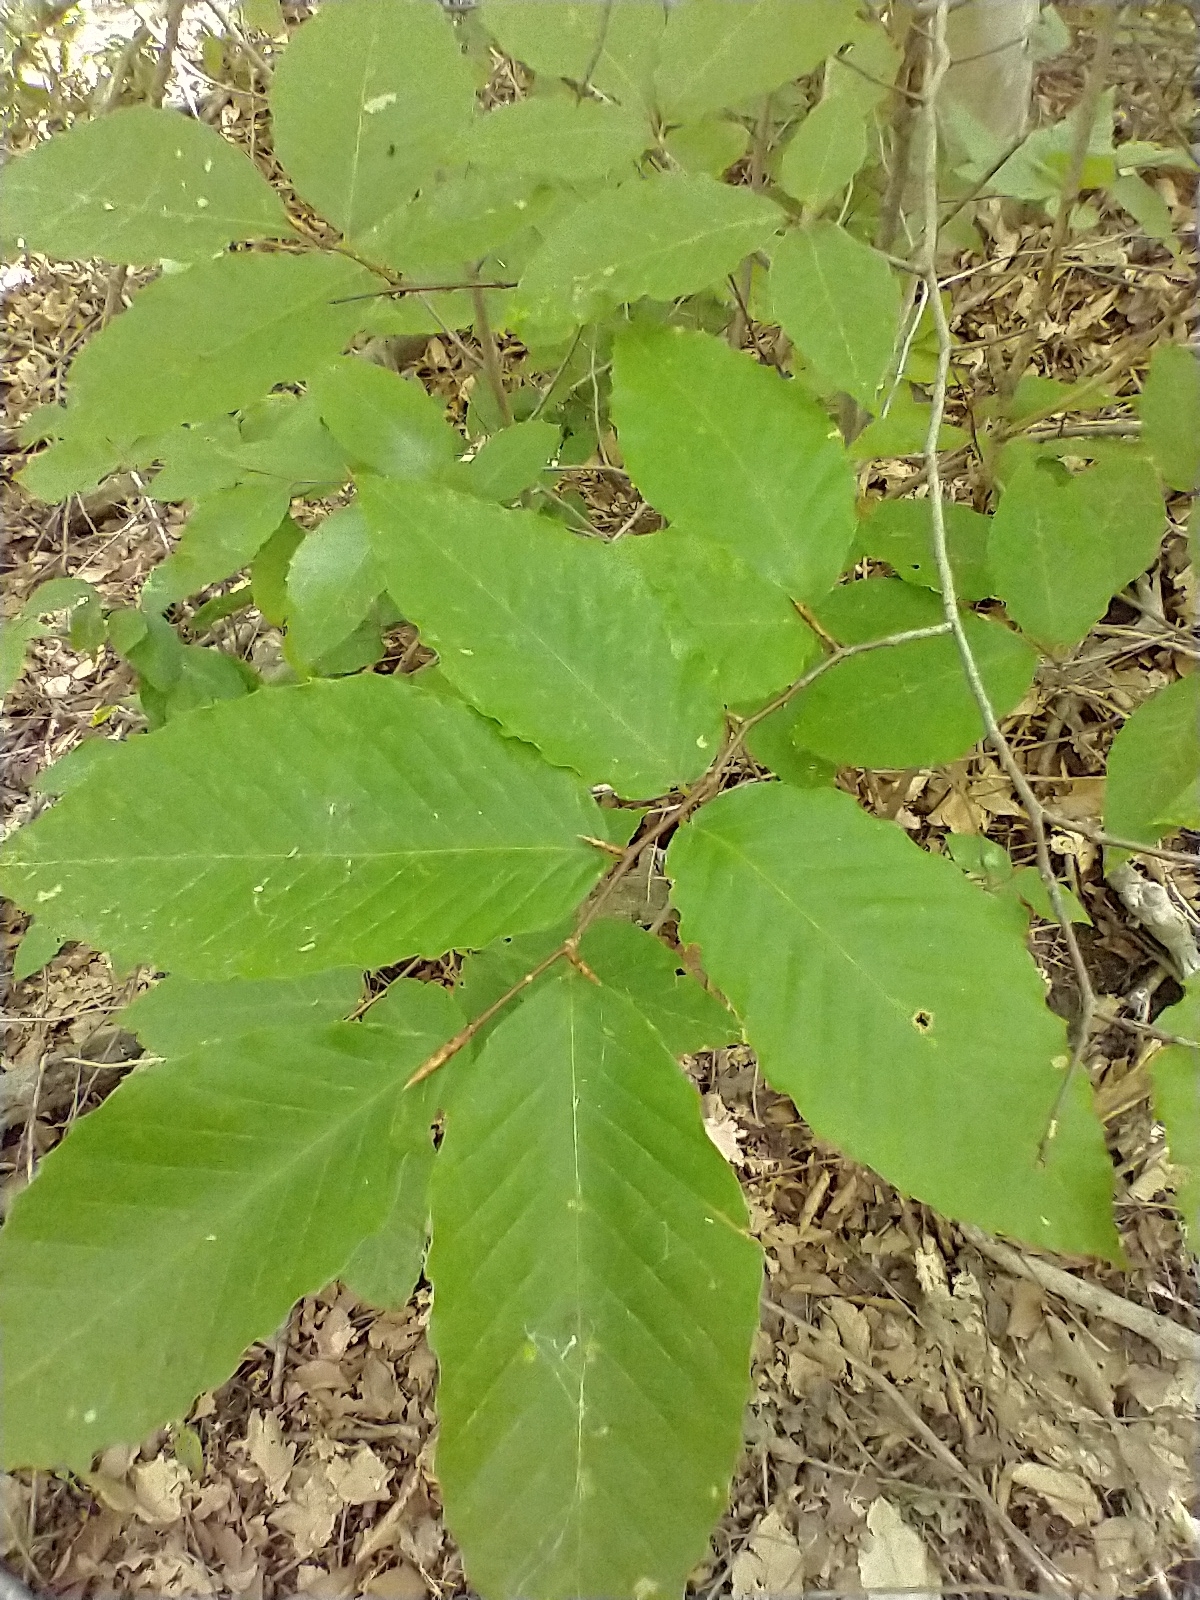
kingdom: Plantae
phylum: Tracheophyta
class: Magnoliopsida
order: Fagales
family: Fagaceae
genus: Fagus
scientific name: Fagus grandifolia
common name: American beech
